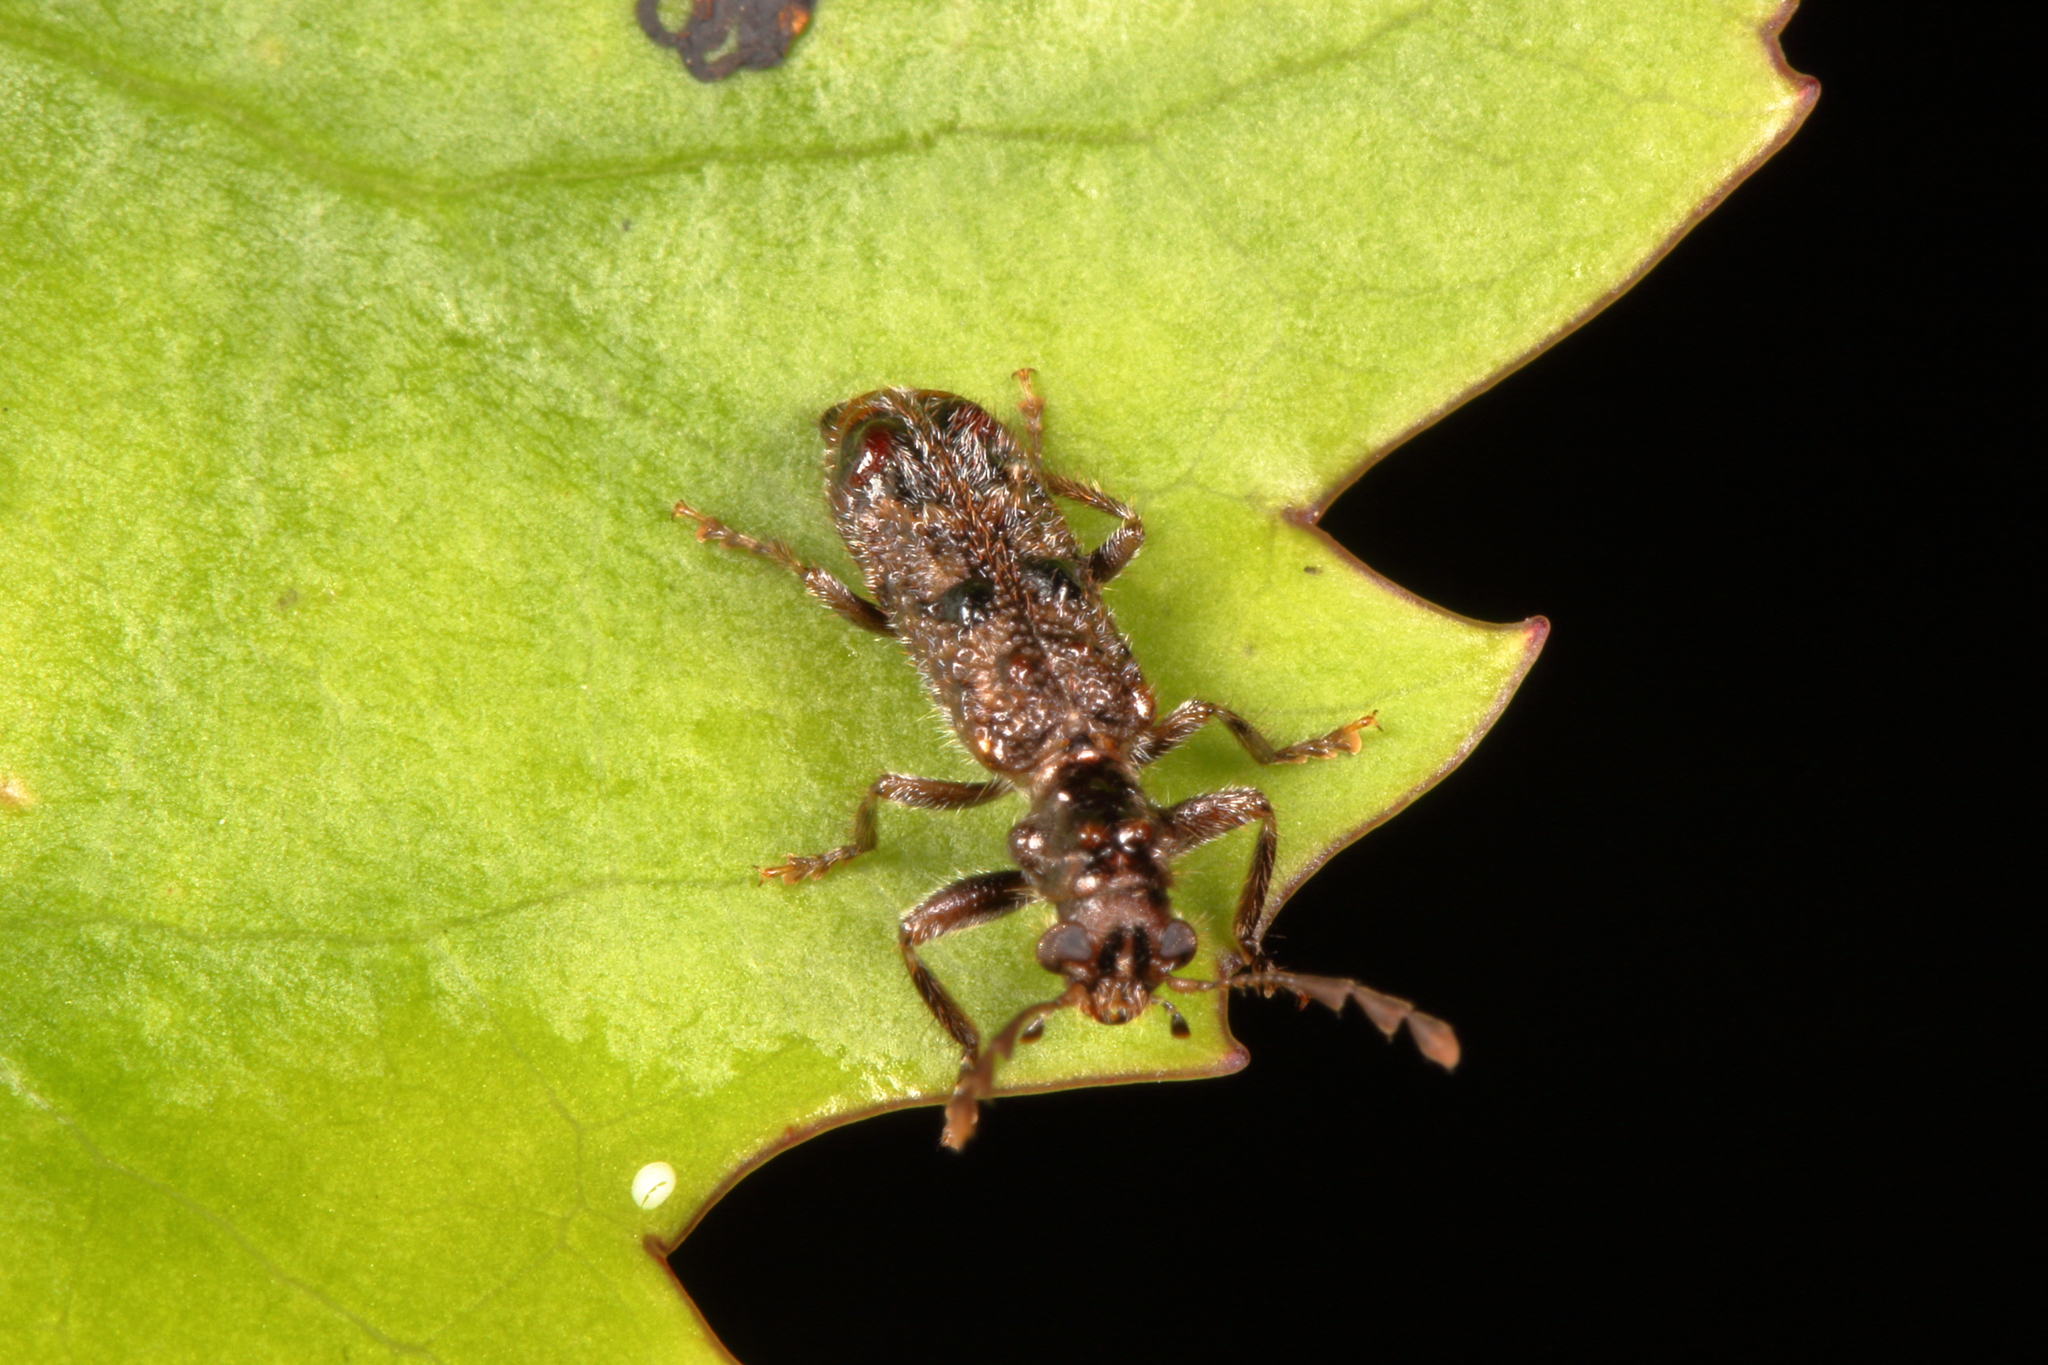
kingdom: Animalia
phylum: Arthropoda
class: Insecta
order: Coleoptera
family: Cleridae
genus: Phymatophaea
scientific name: Phymatophaea
